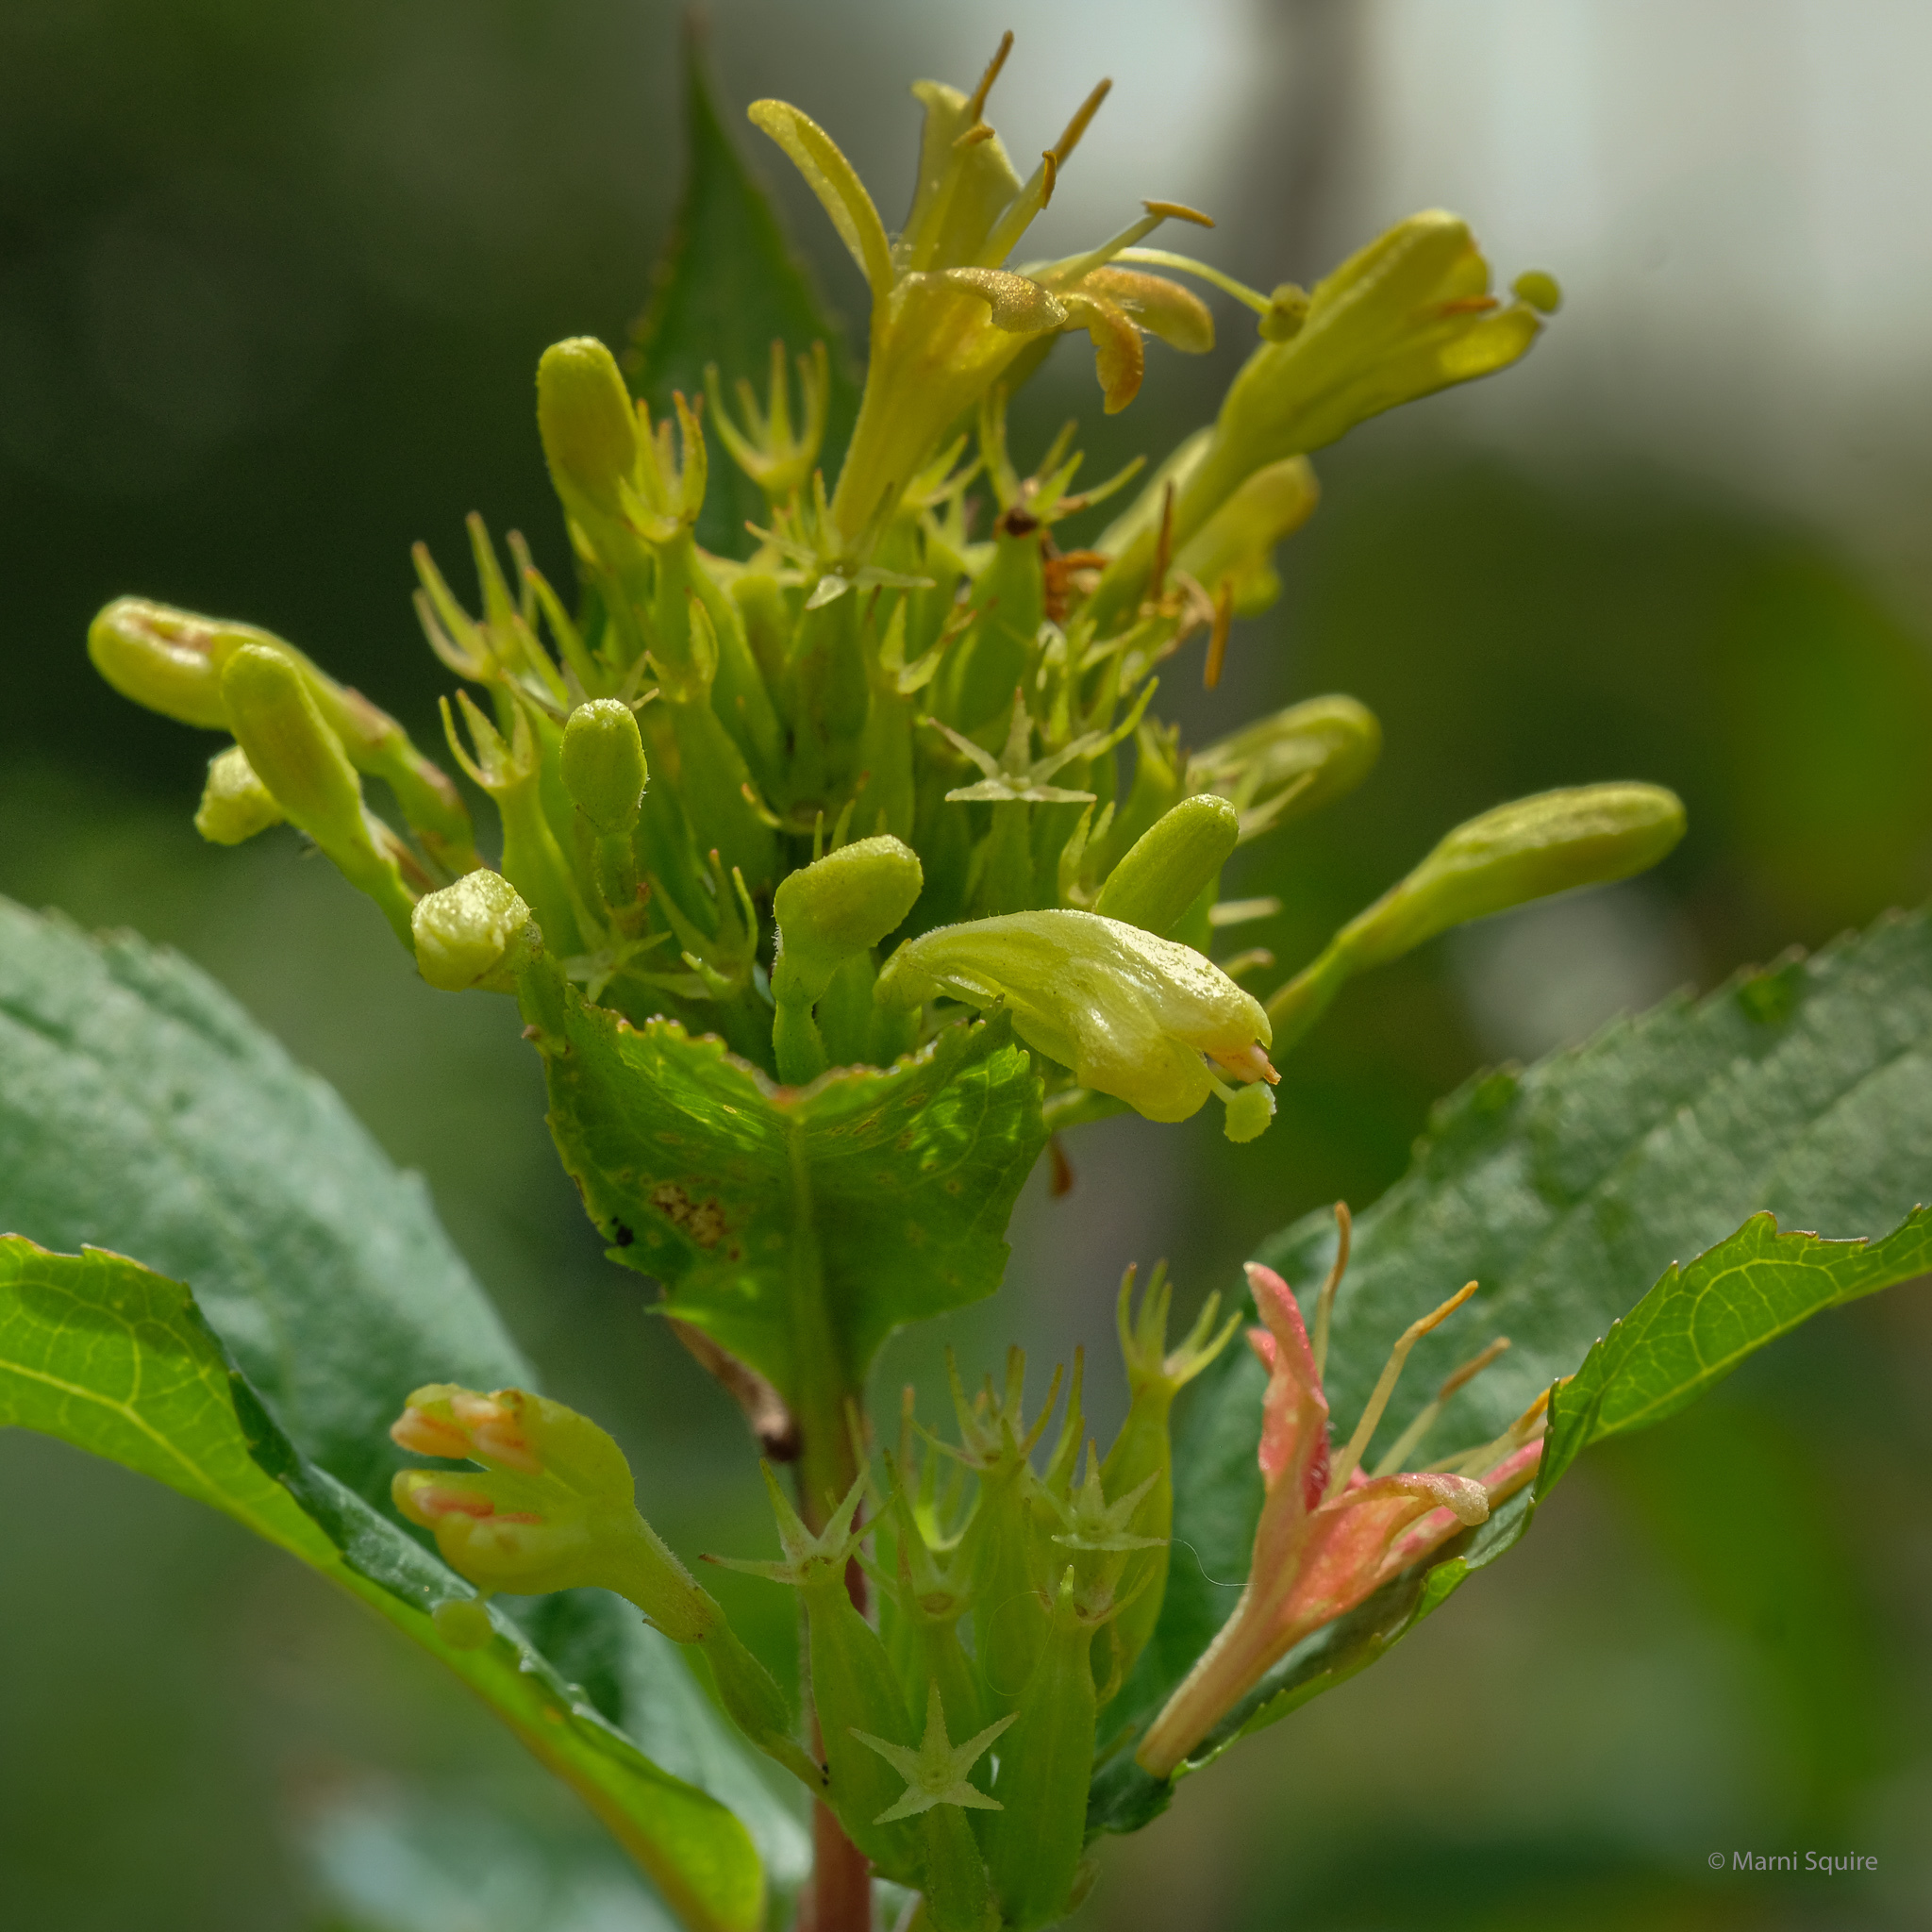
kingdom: Plantae
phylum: Tracheophyta
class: Magnoliopsida
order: Dipsacales
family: Caprifoliaceae
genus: Diervilla
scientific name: Diervilla lonicera
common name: Bush-honeysuckle
